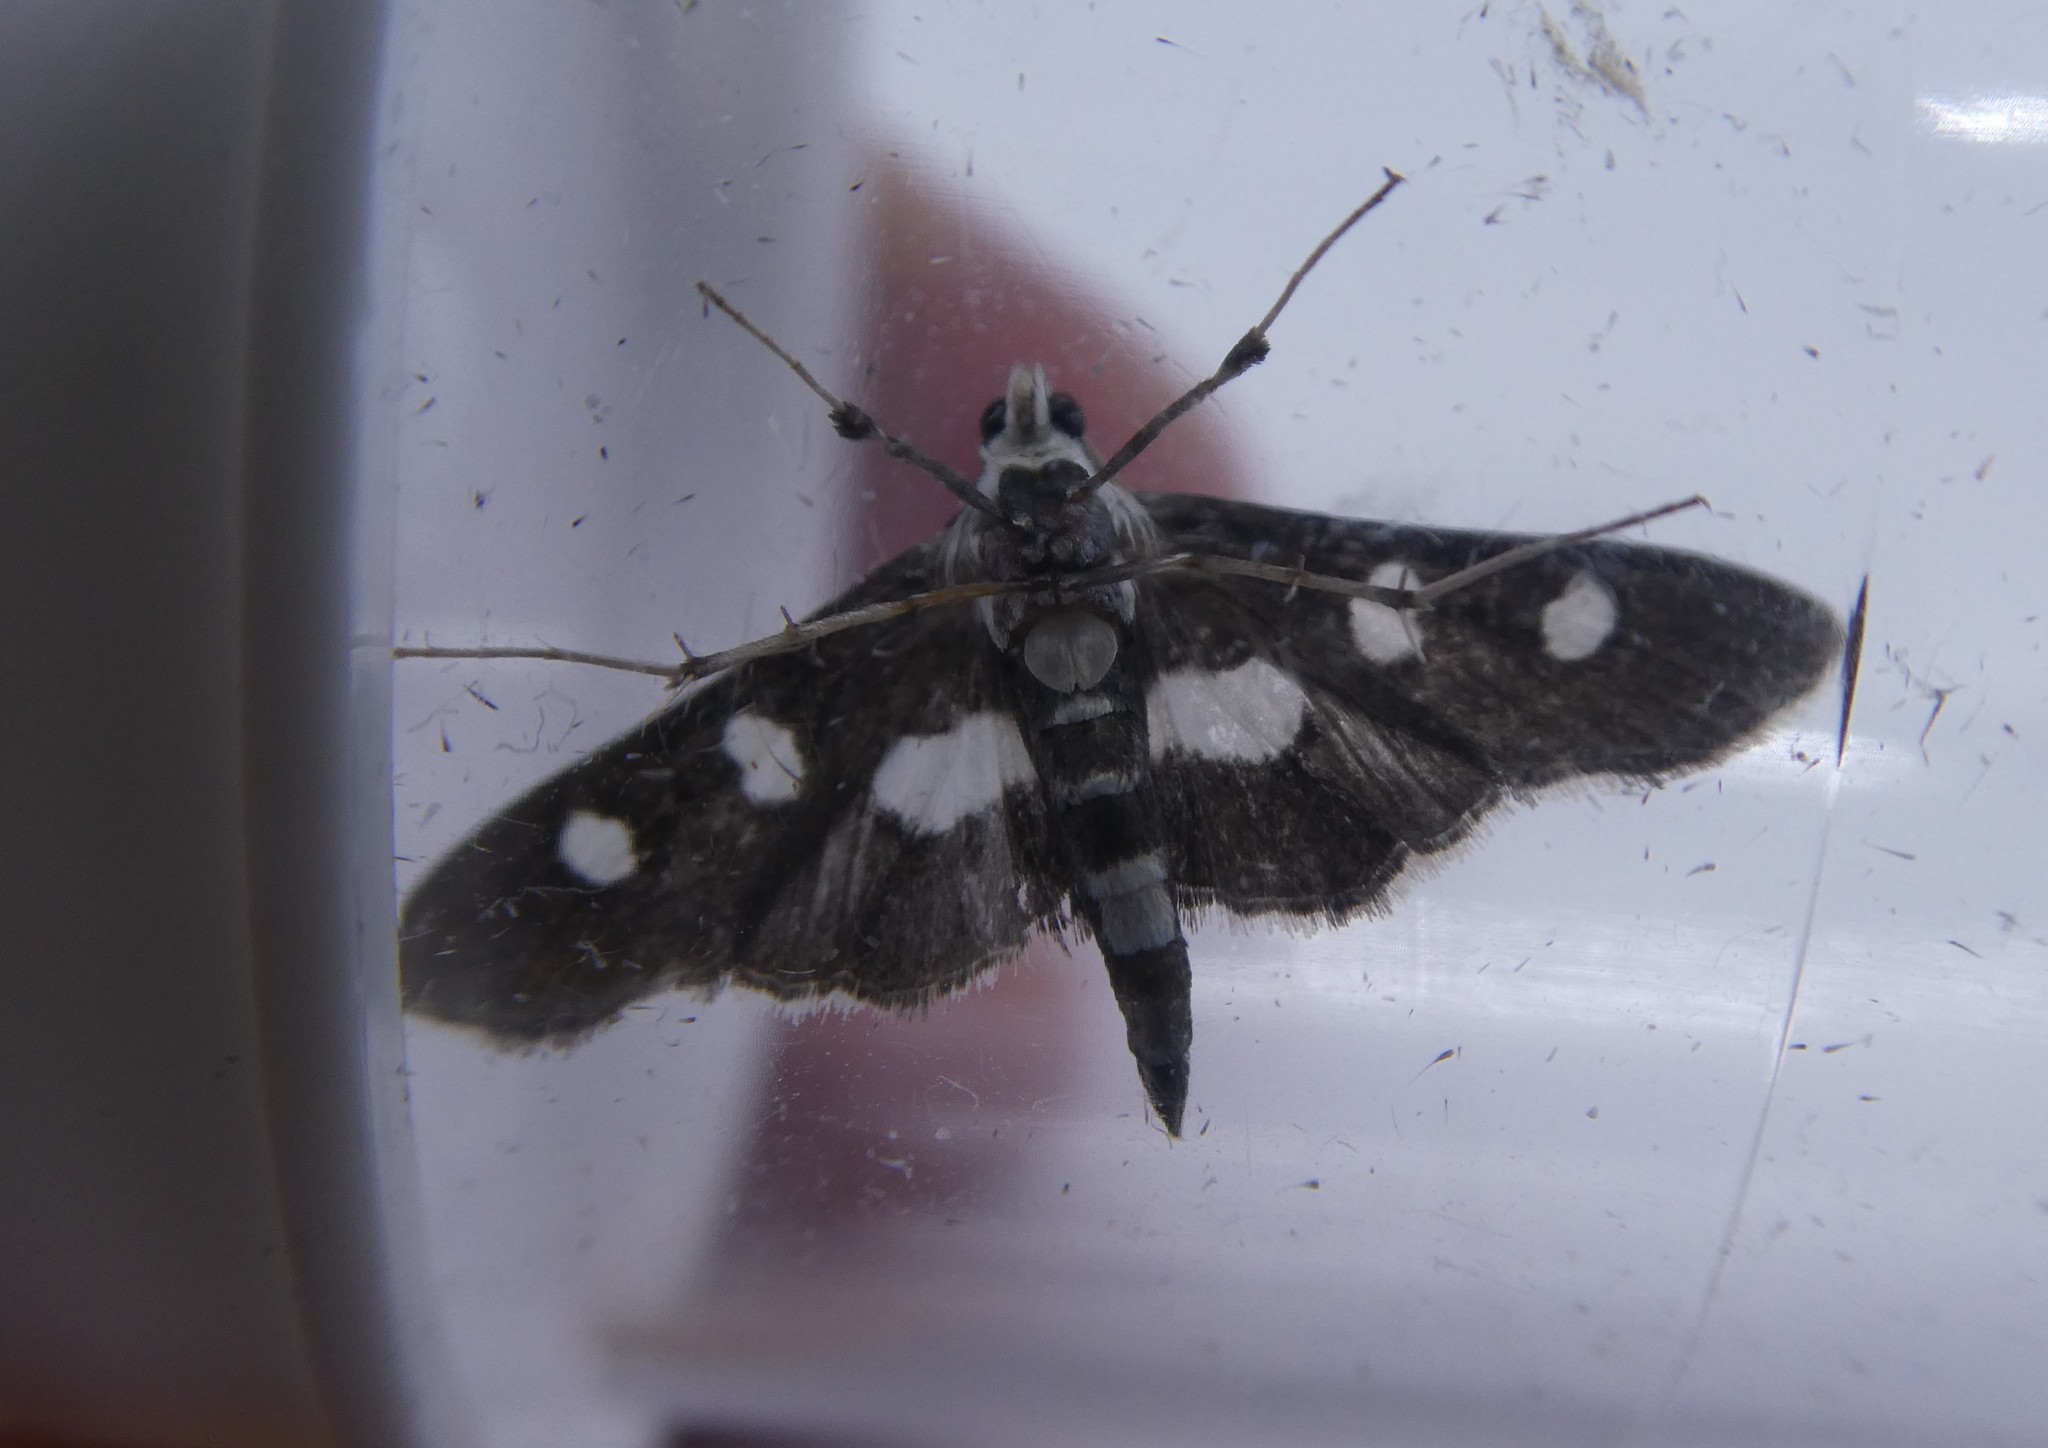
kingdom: Animalia
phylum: Arthropoda
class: Insecta
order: Lepidoptera
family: Crambidae
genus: Desmia
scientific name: Desmia funeralis
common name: Grape leaf folder moth
